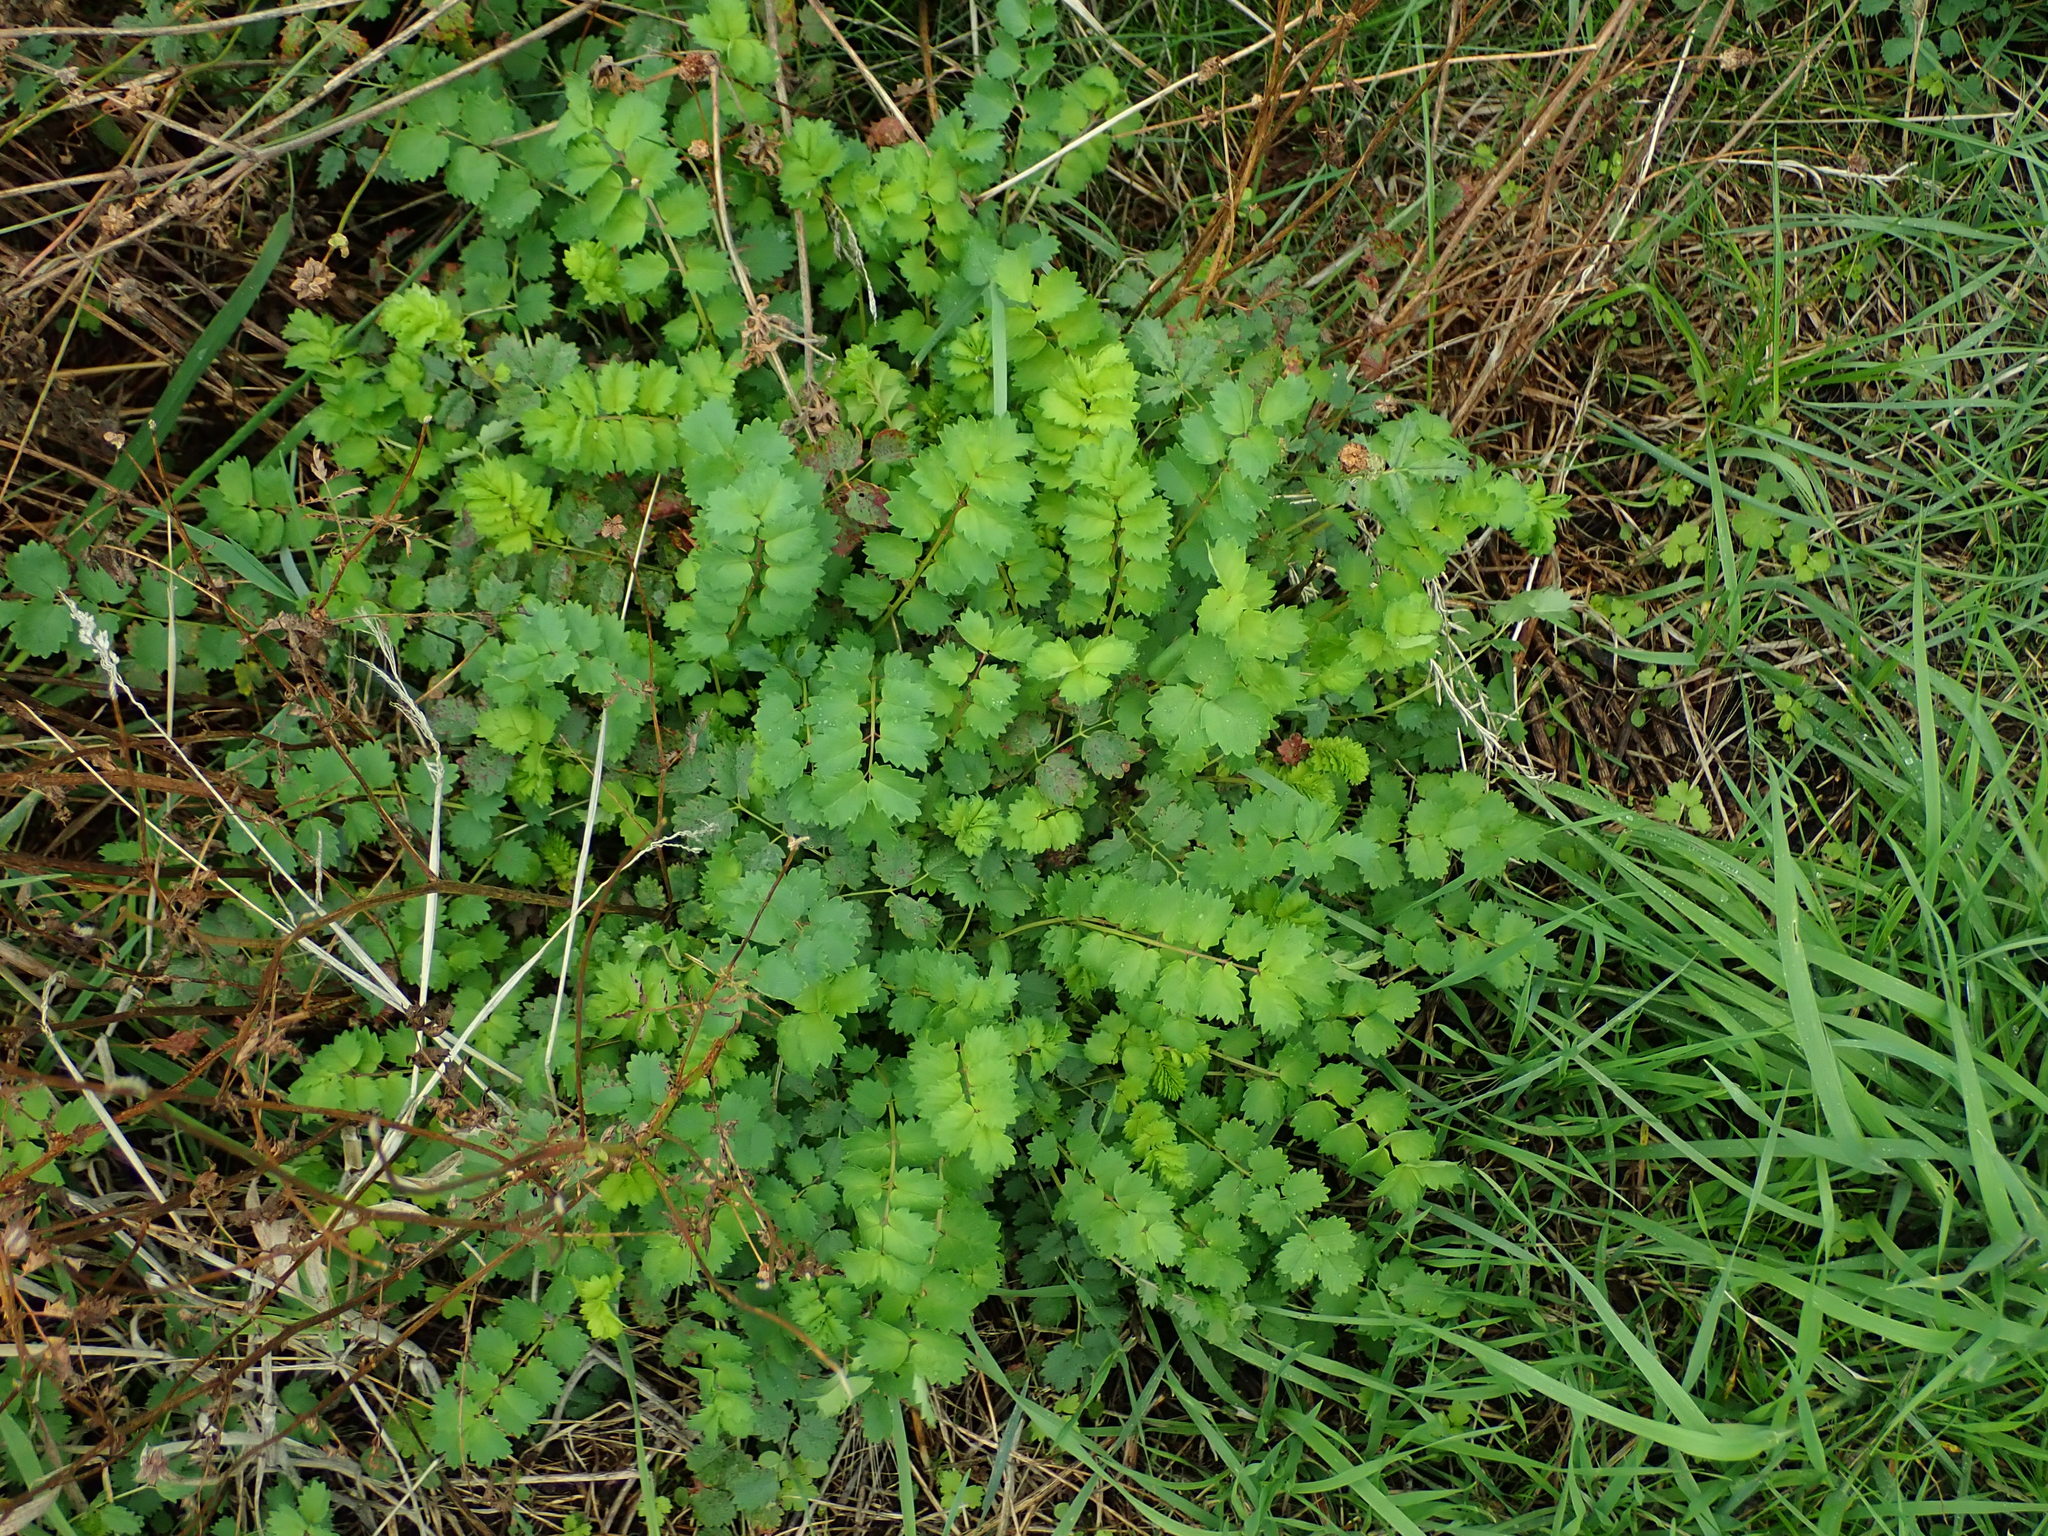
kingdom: Plantae
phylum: Tracheophyta
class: Magnoliopsida
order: Rosales
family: Rosaceae
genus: Poterium
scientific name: Poterium sanguisorba
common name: Salad burnet
